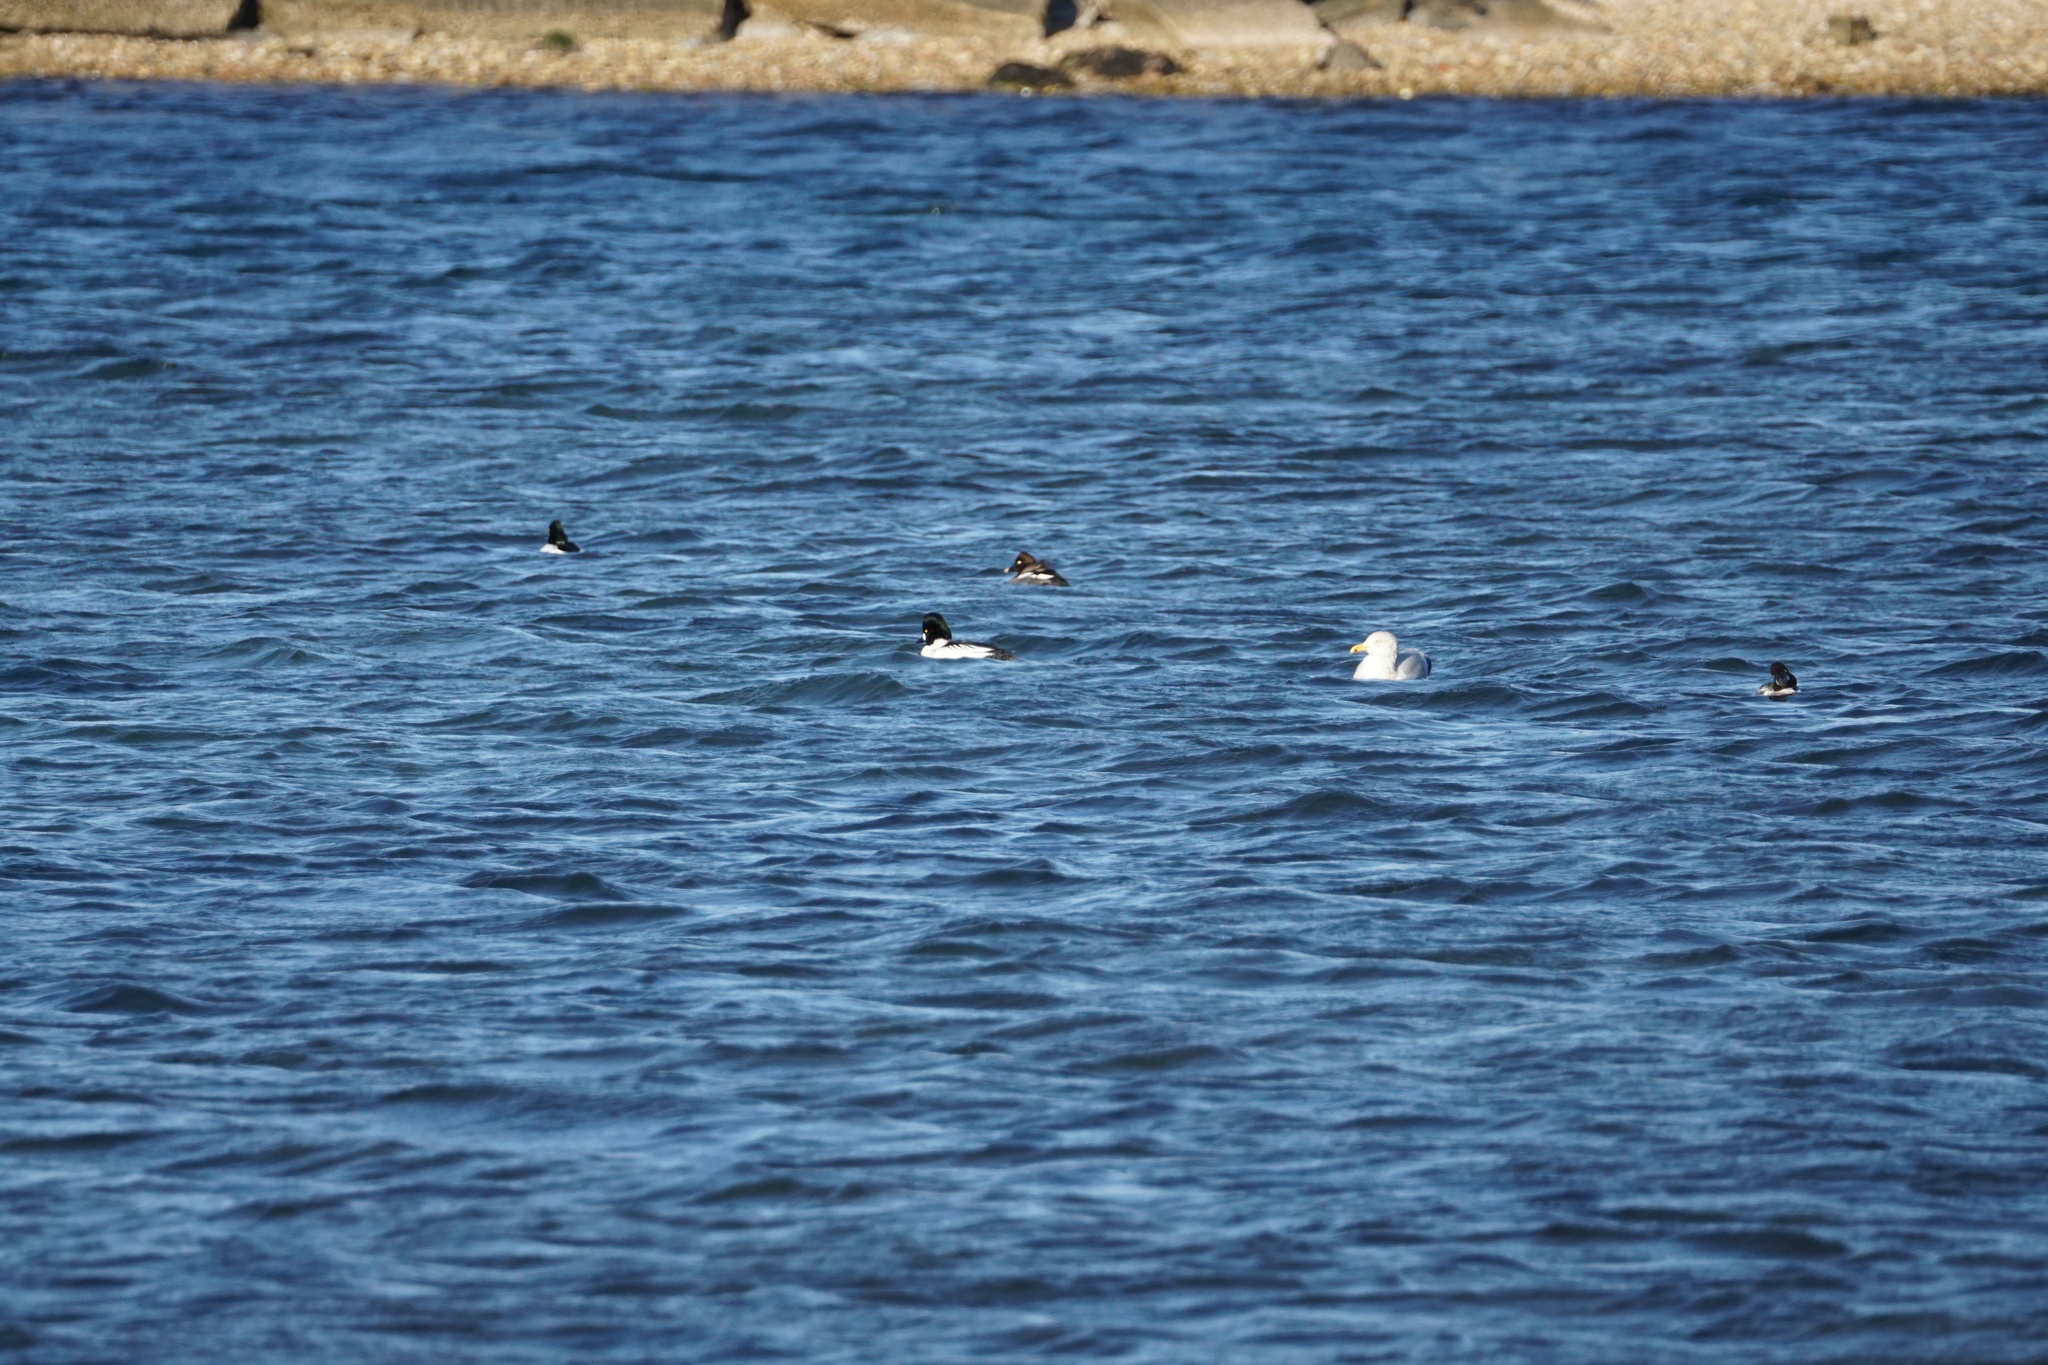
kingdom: Animalia
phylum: Chordata
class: Aves
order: Anseriformes
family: Anatidae
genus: Bucephala
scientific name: Bucephala clangula
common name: Common goldeneye
